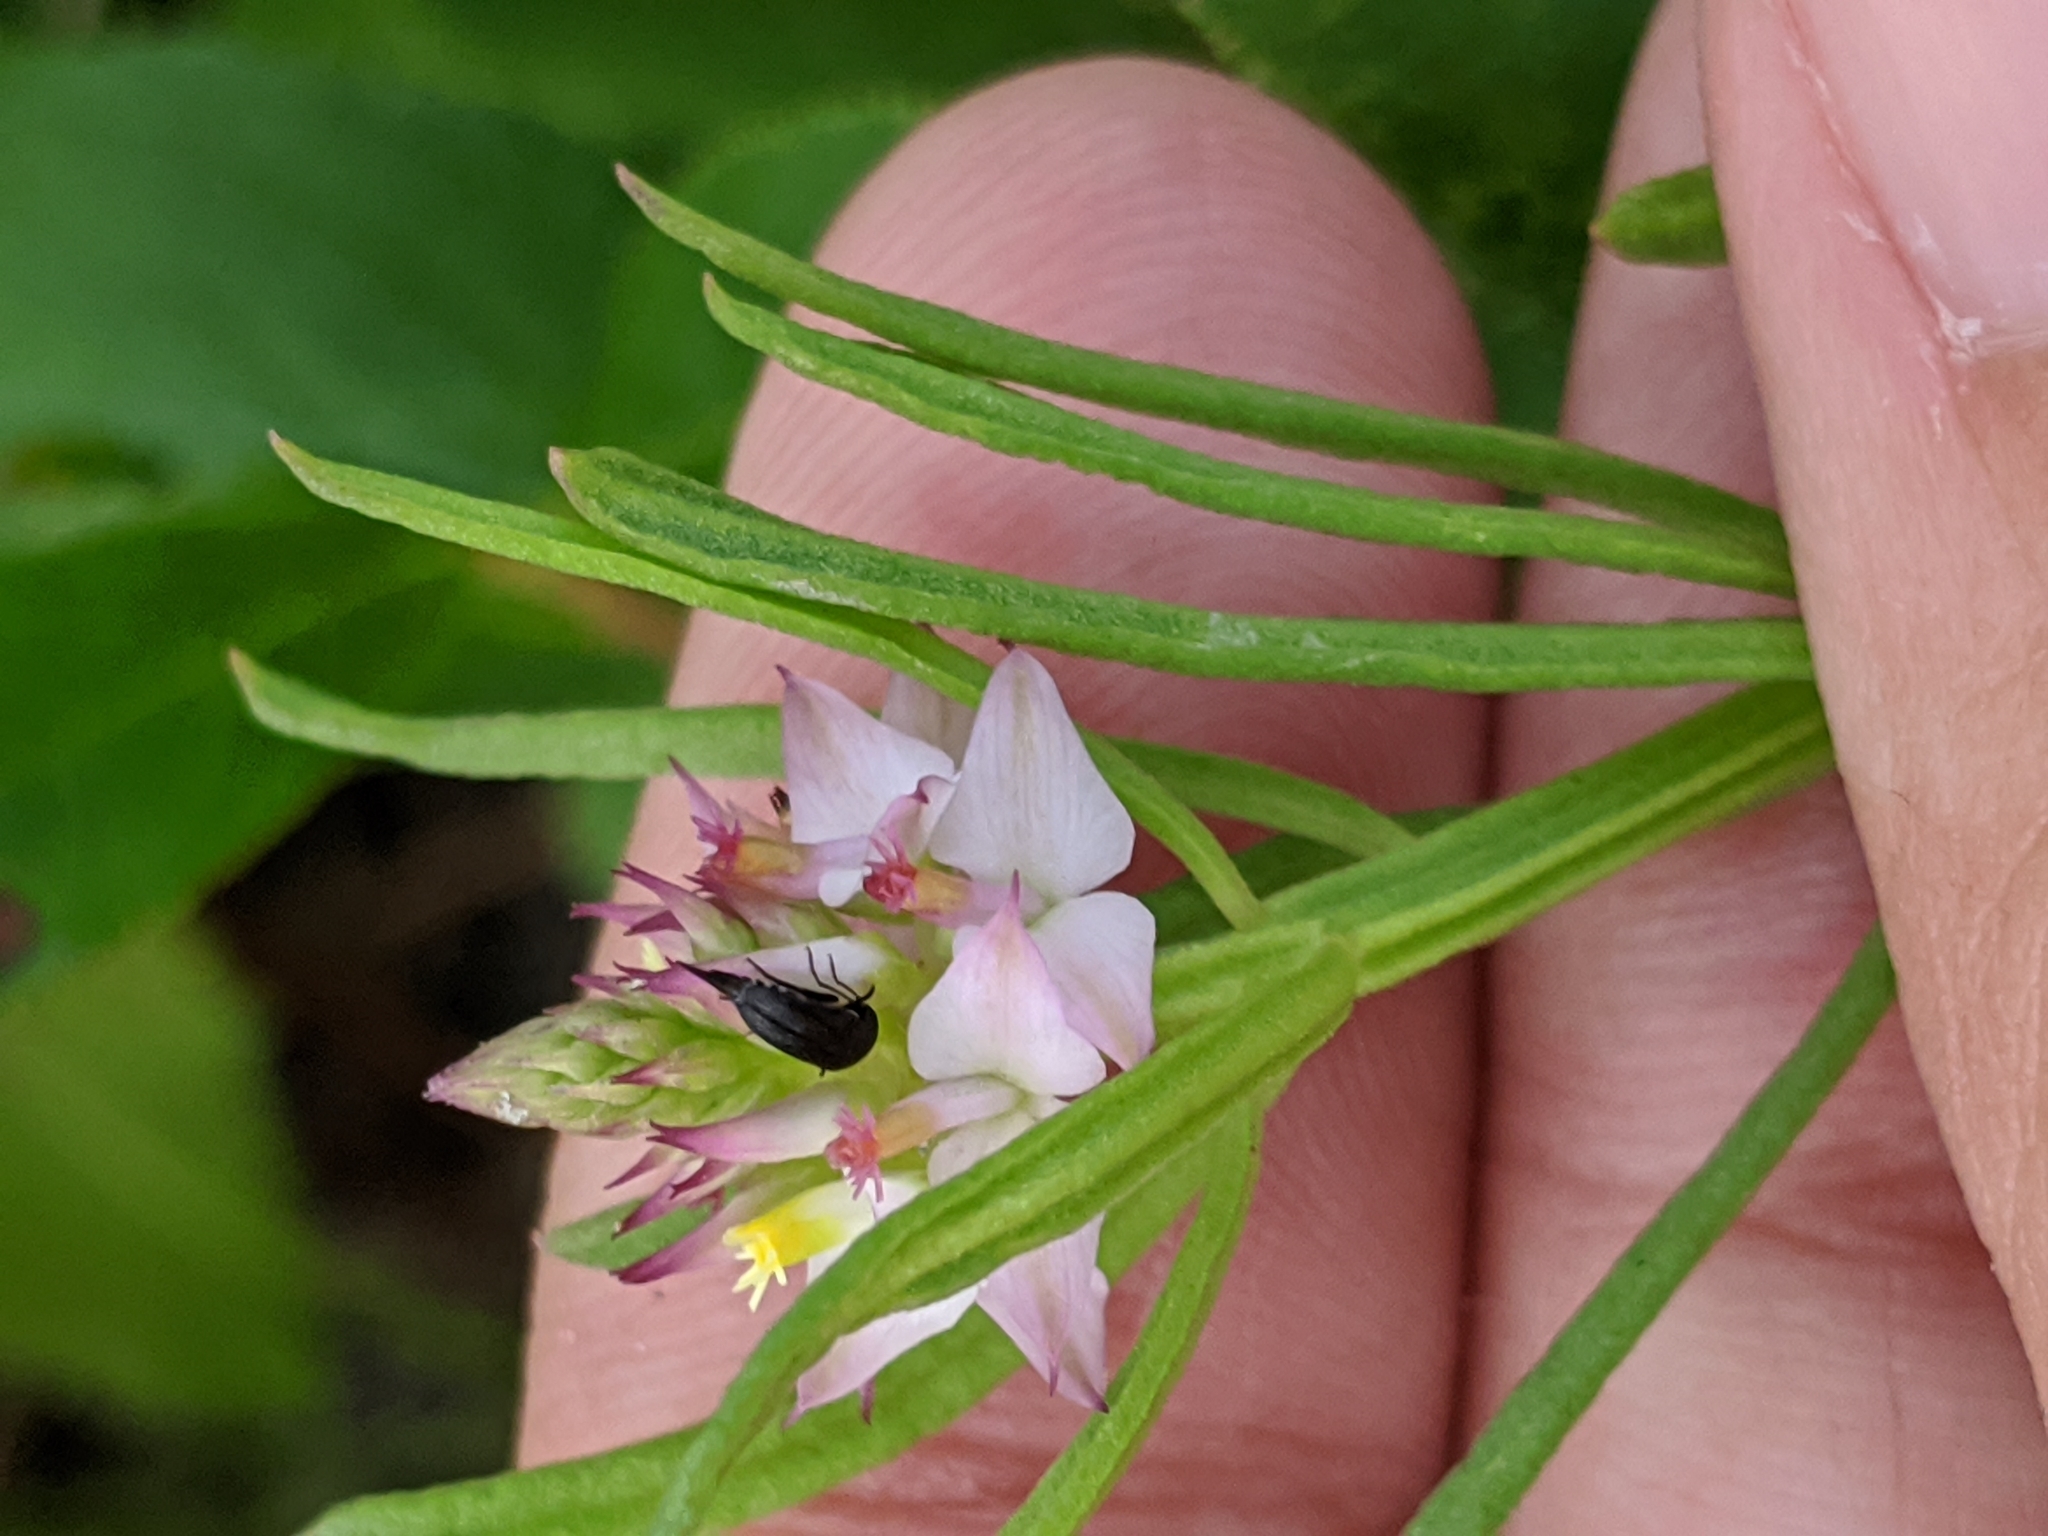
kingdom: Plantae
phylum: Tracheophyta
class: Magnoliopsida
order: Fabales
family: Polygalaceae
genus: Polygala
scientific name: Polygala cruciata
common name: Drumheads
